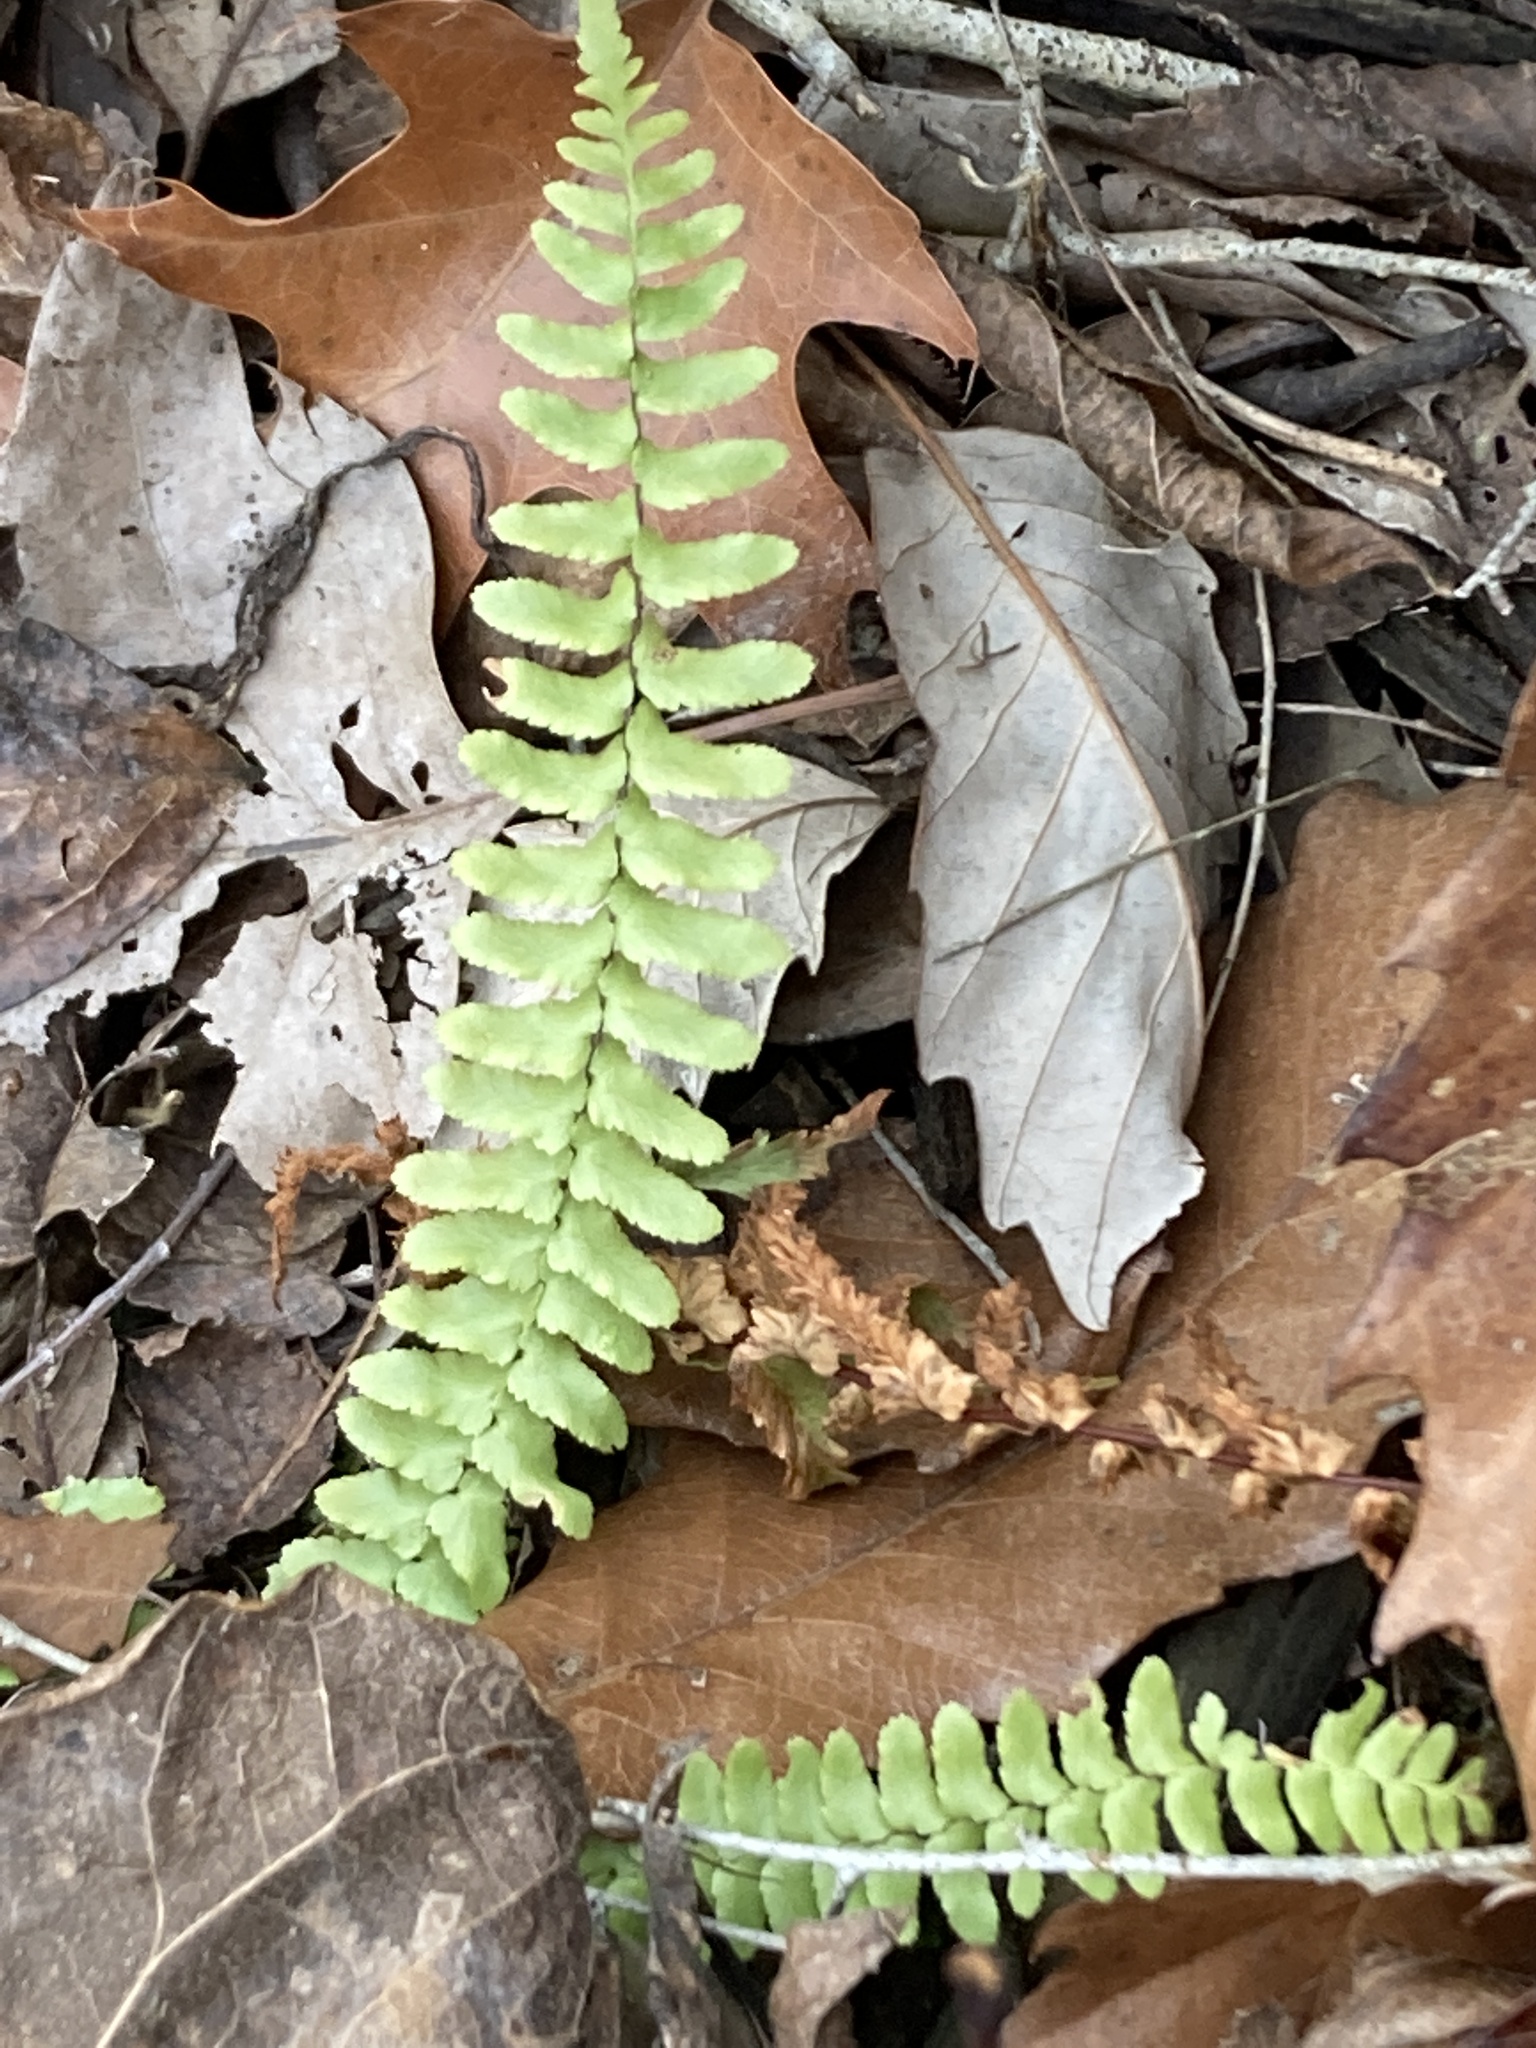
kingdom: Plantae
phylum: Tracheophyta
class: Polypodiopsida
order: Polypodiales
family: Aspleniaceae
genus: Asplenium
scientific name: Asplenium platyneuron
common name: Ebony spleenwort
